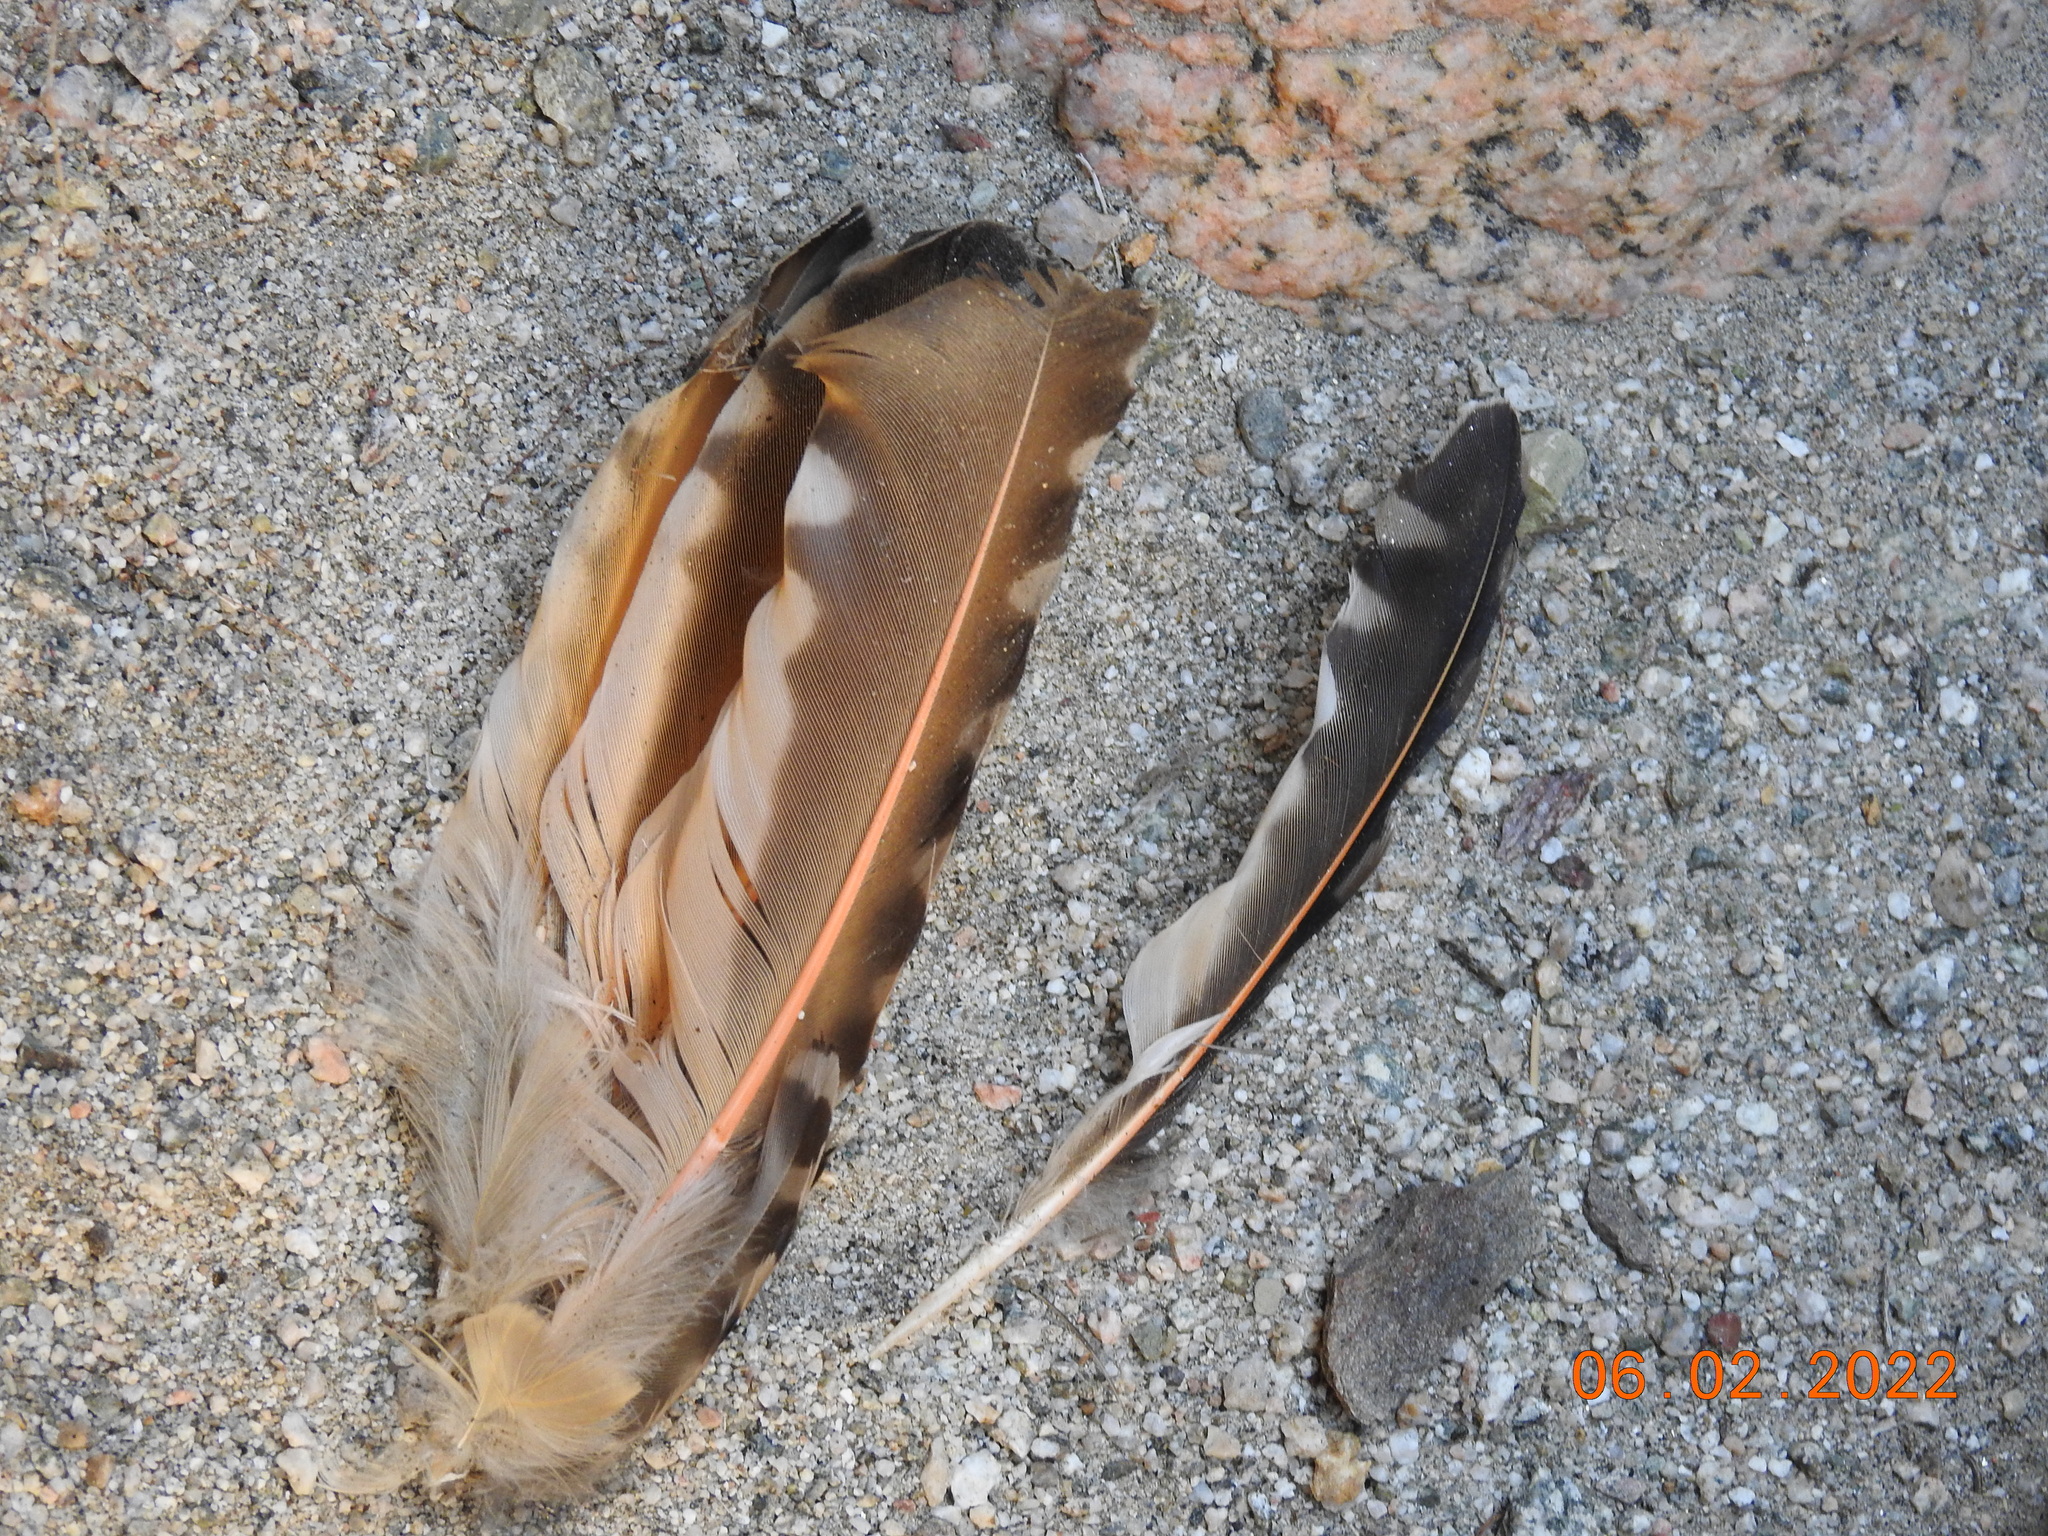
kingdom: Animalia
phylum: Chordata
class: Aves
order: Piciformes
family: Picidae
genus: Colaptes
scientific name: Colaptes auratus
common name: Northern flicker
